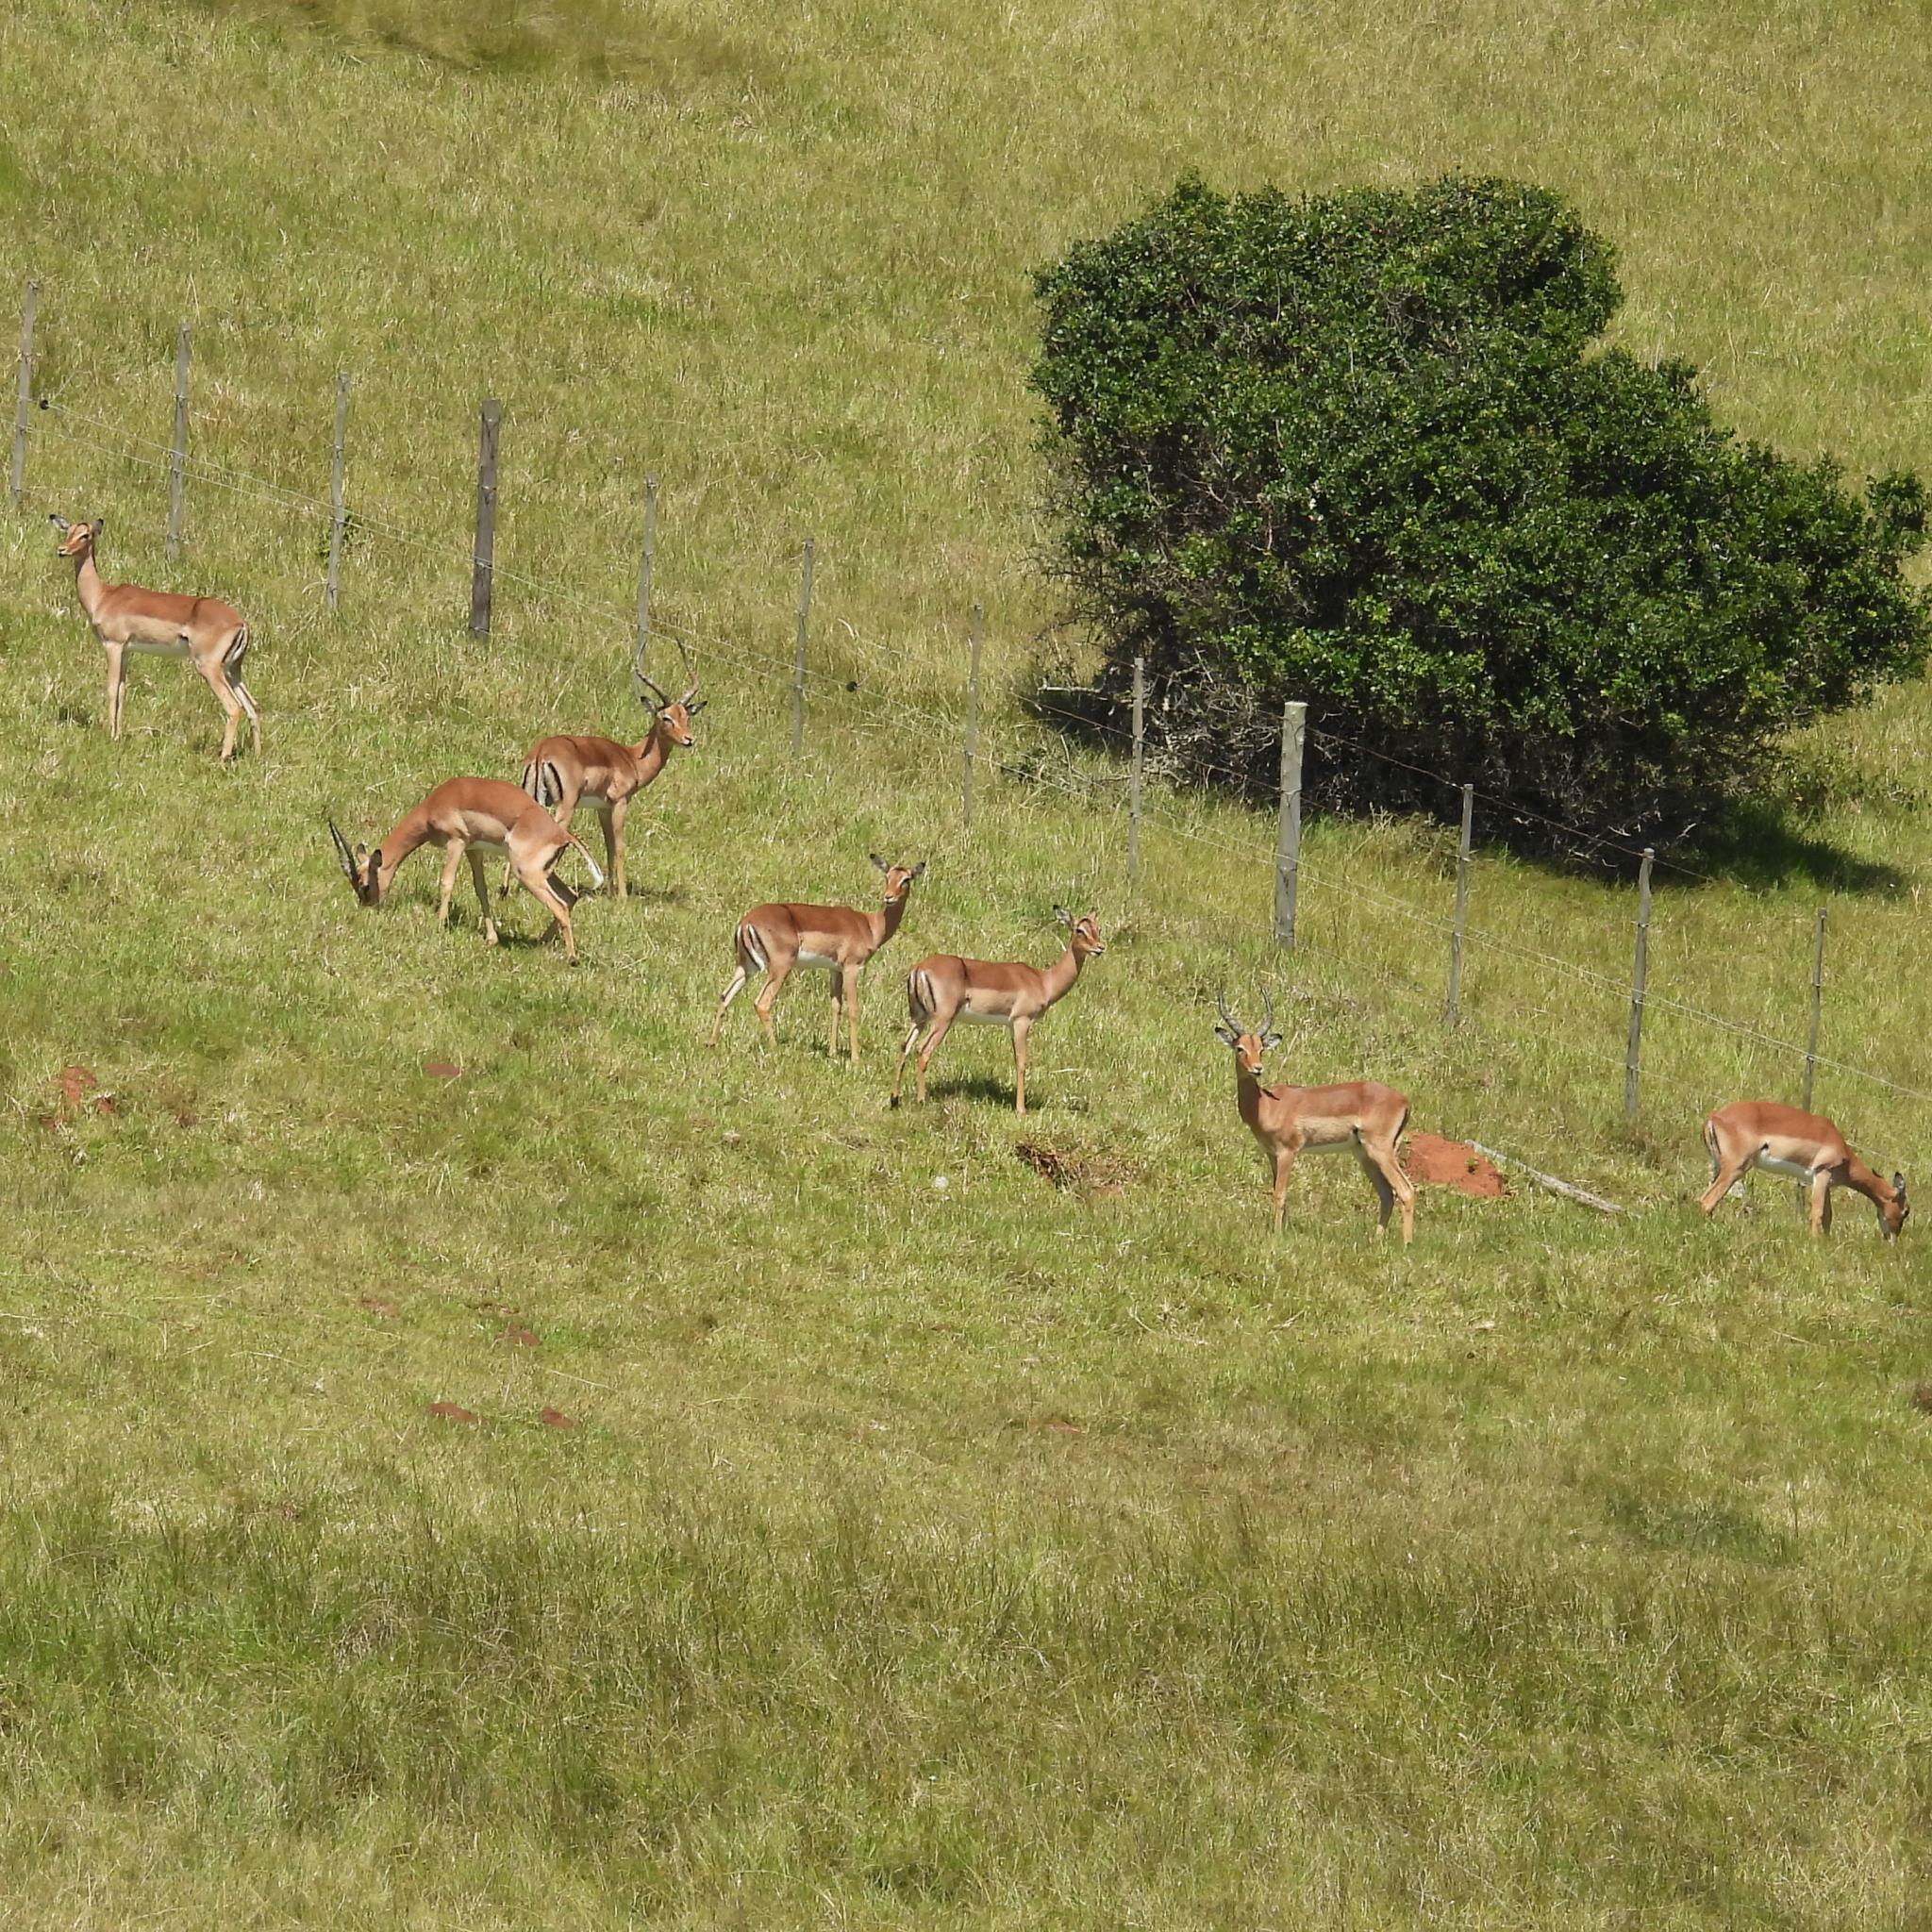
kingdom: Animalia
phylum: Chordata
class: Mammalia
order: Artiodactyla
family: Bovidae
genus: Aepyceros
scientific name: Aepyceros melampus
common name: Impala
